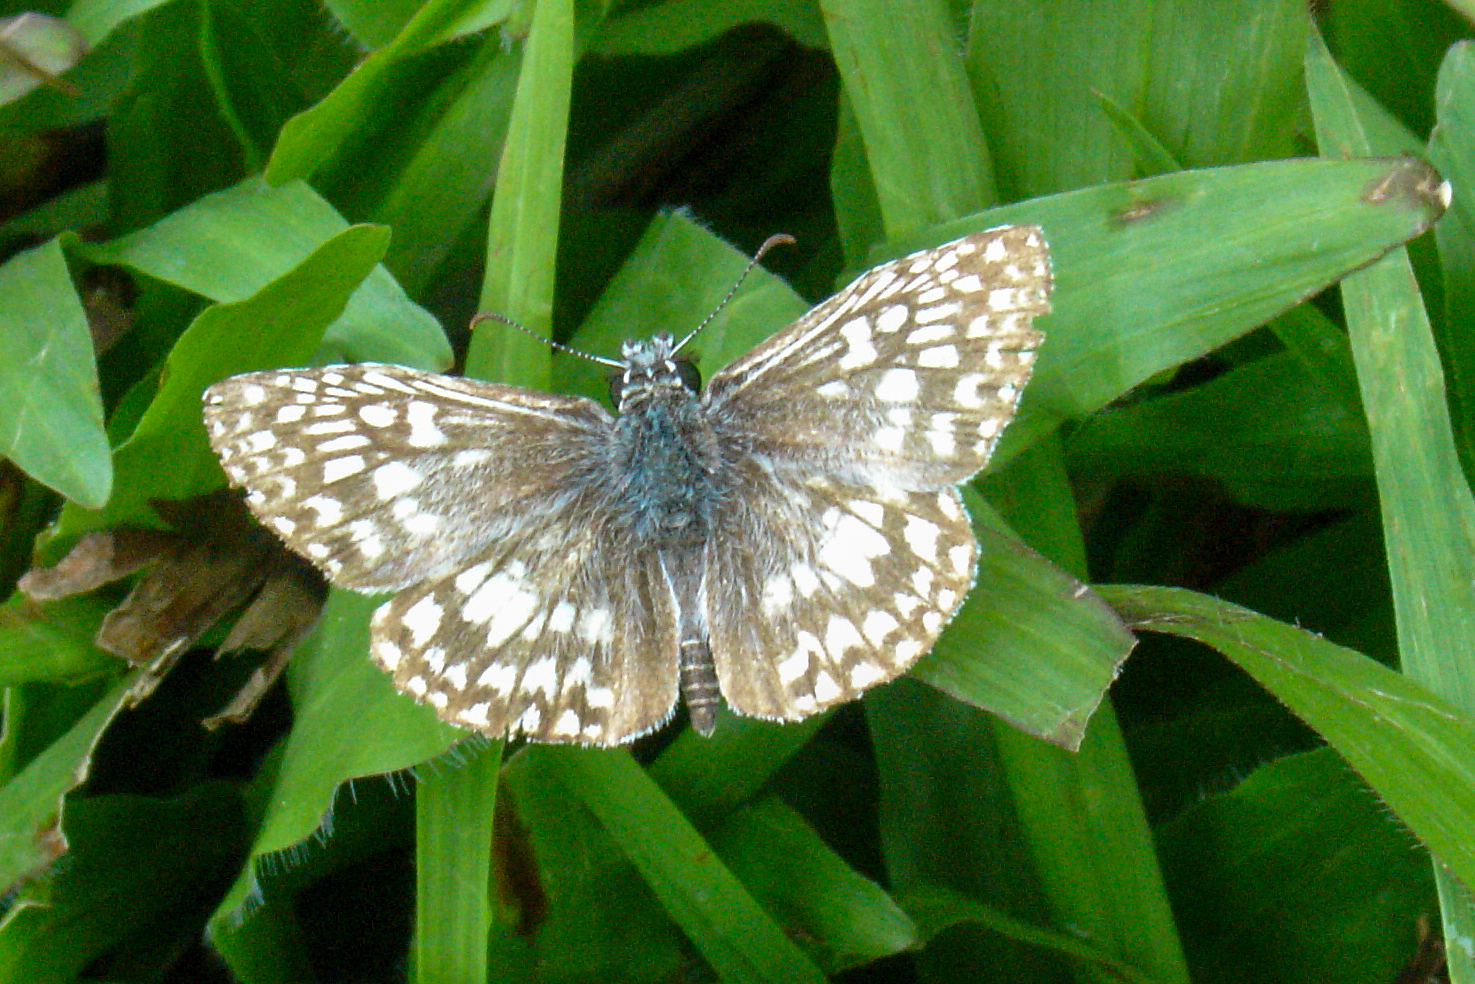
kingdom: Animalia
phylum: Arthropoda
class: Insecta
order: Lepidoptera
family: Hesperiidae
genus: Pyrgus
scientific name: Pyrgus oileus
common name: Tropical checkered-skipper
